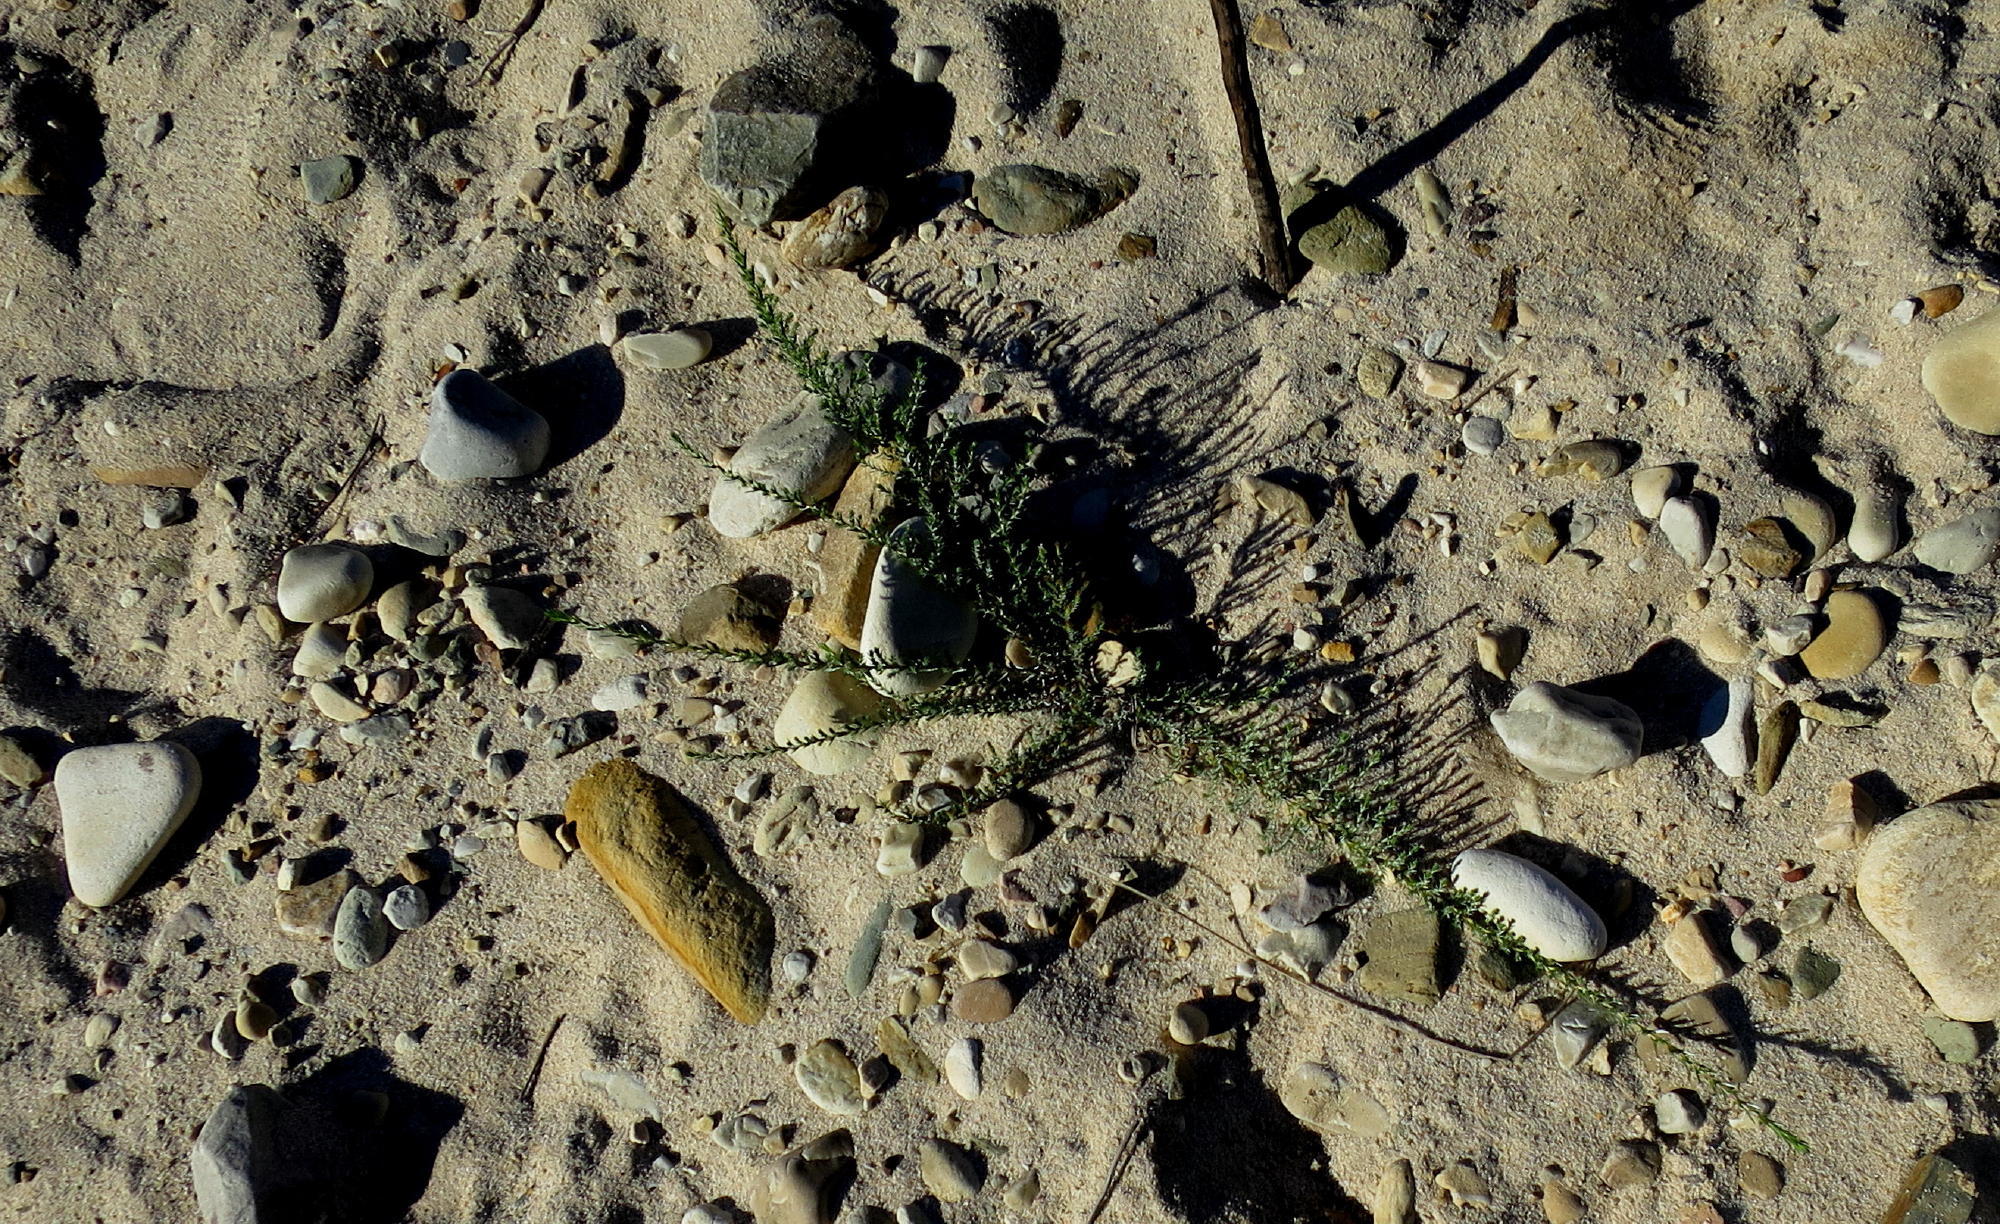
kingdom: Plantae
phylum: Tracheophyta
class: Magnoliopsida
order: Asterales
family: Asteraceae
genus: Amphiglossa
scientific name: Amphiglossa callunoides
